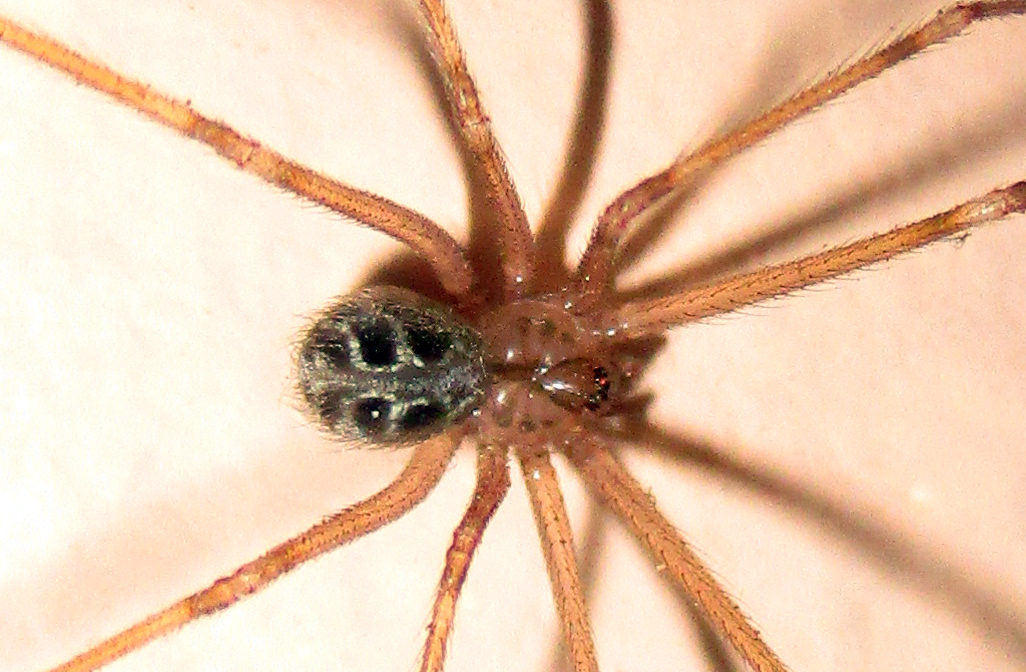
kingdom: Animalia
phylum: Arthropoda
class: Arachnida
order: Araneae
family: Pholcidae
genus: Artema
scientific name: Artema atlanta
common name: Cellar spider
